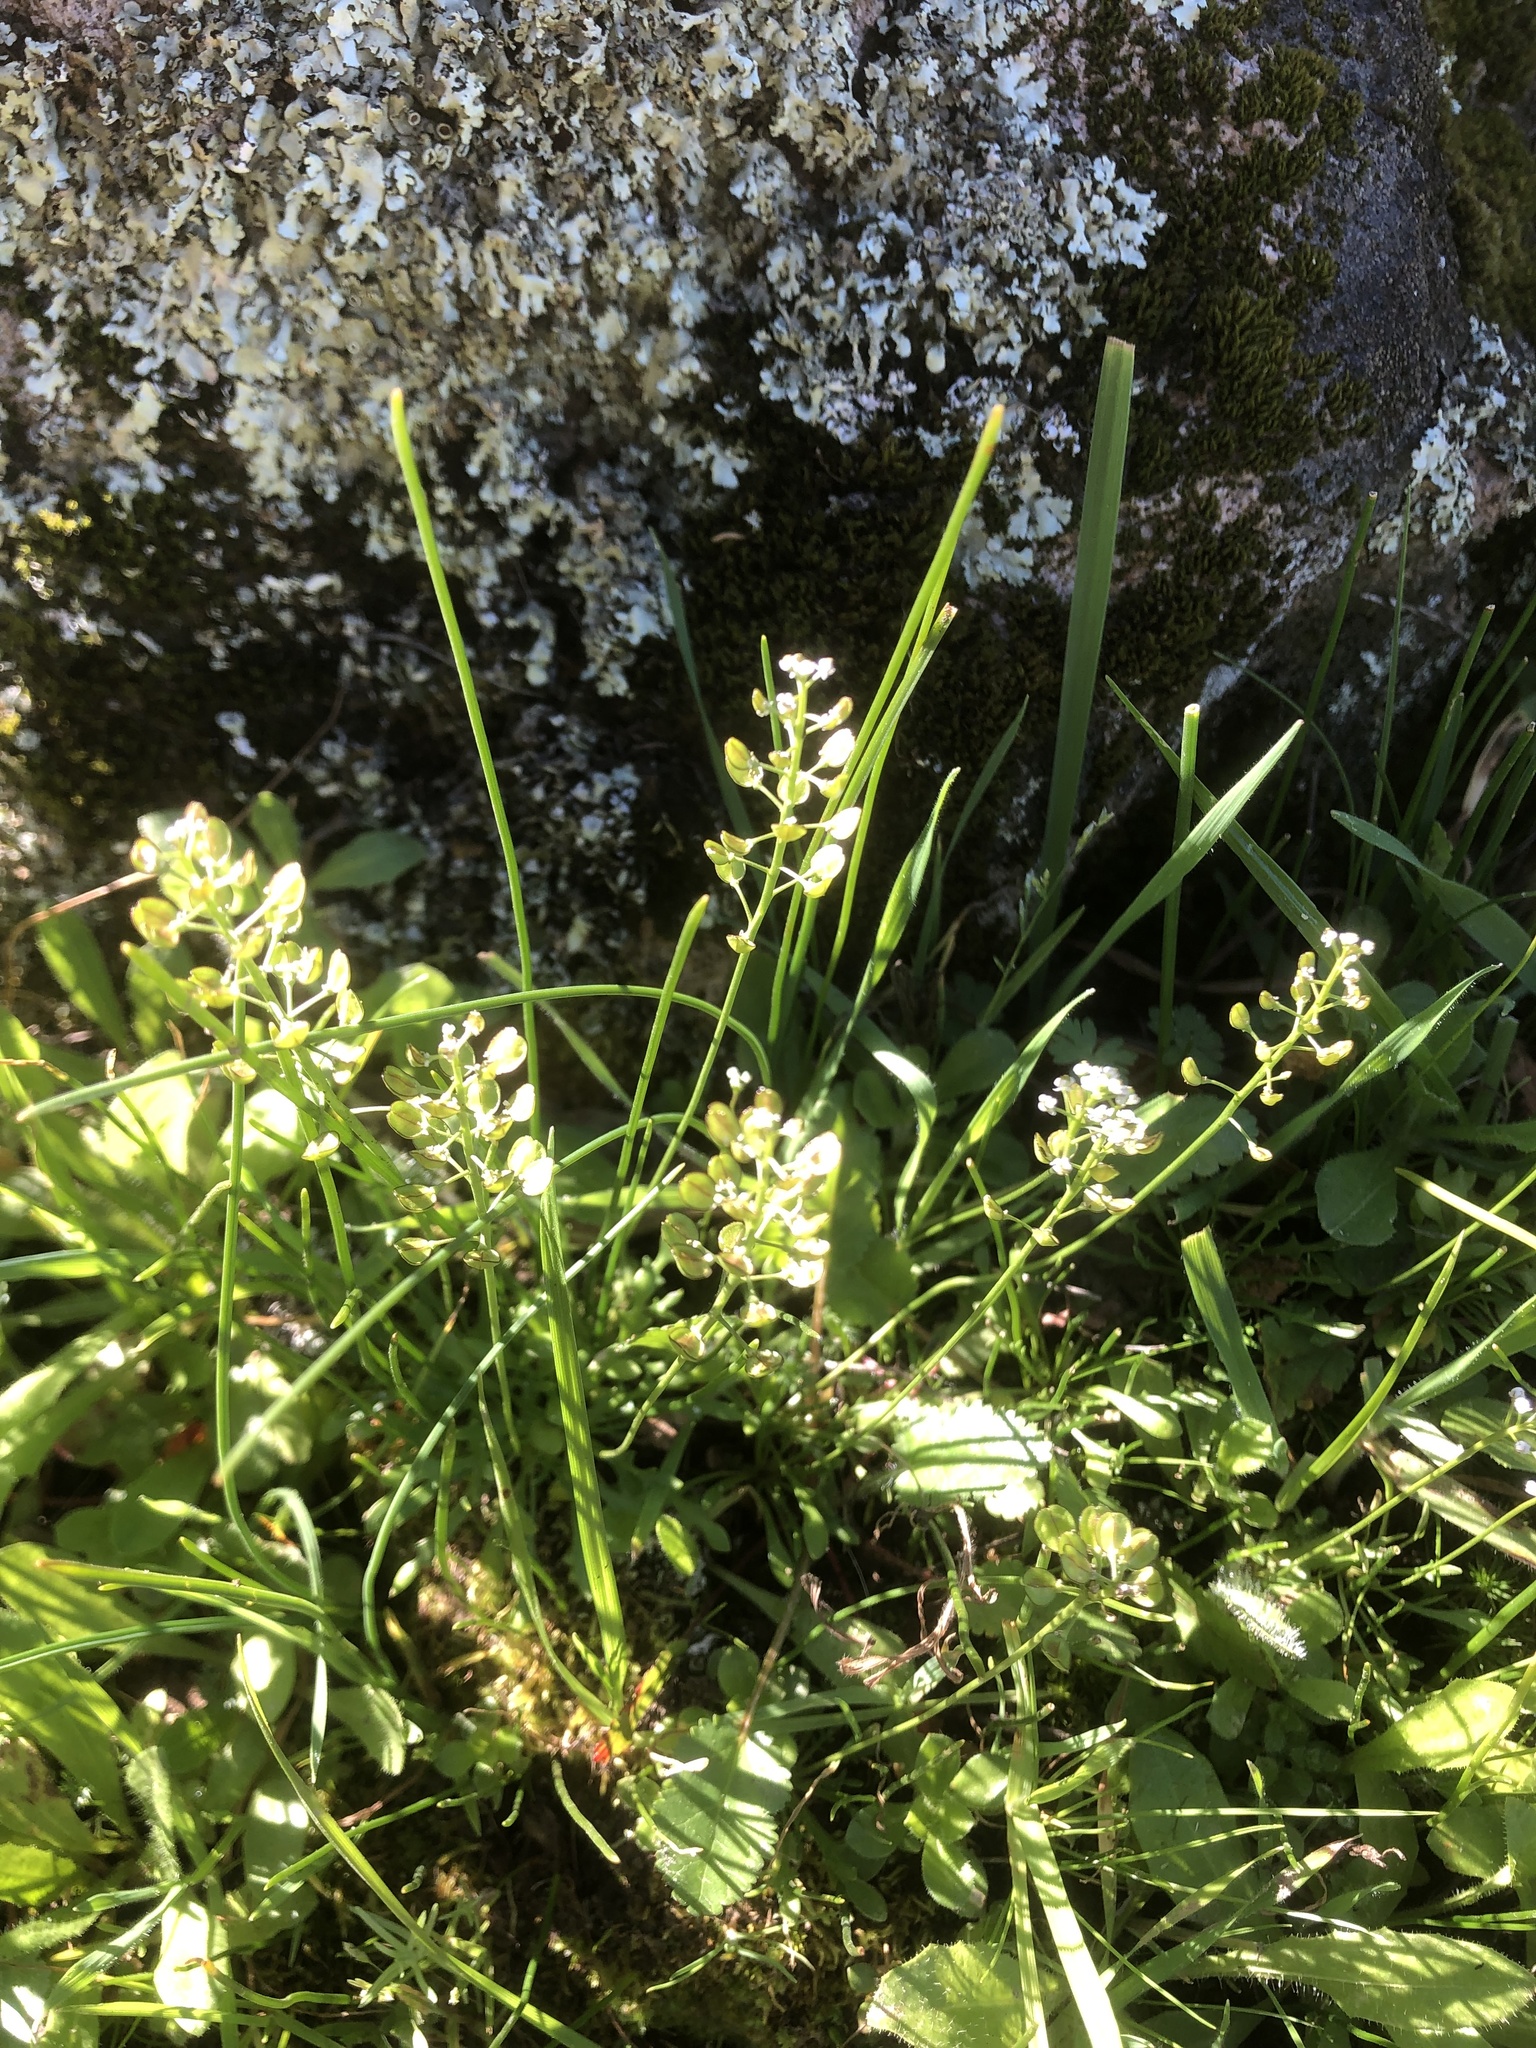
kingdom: Plantae
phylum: Tracheophyta
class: Magnoliopsida
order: Brassicales
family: Brassicaceae
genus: Teesdalia
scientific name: Teesdalia nudicaulis
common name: Shepherd's cress
